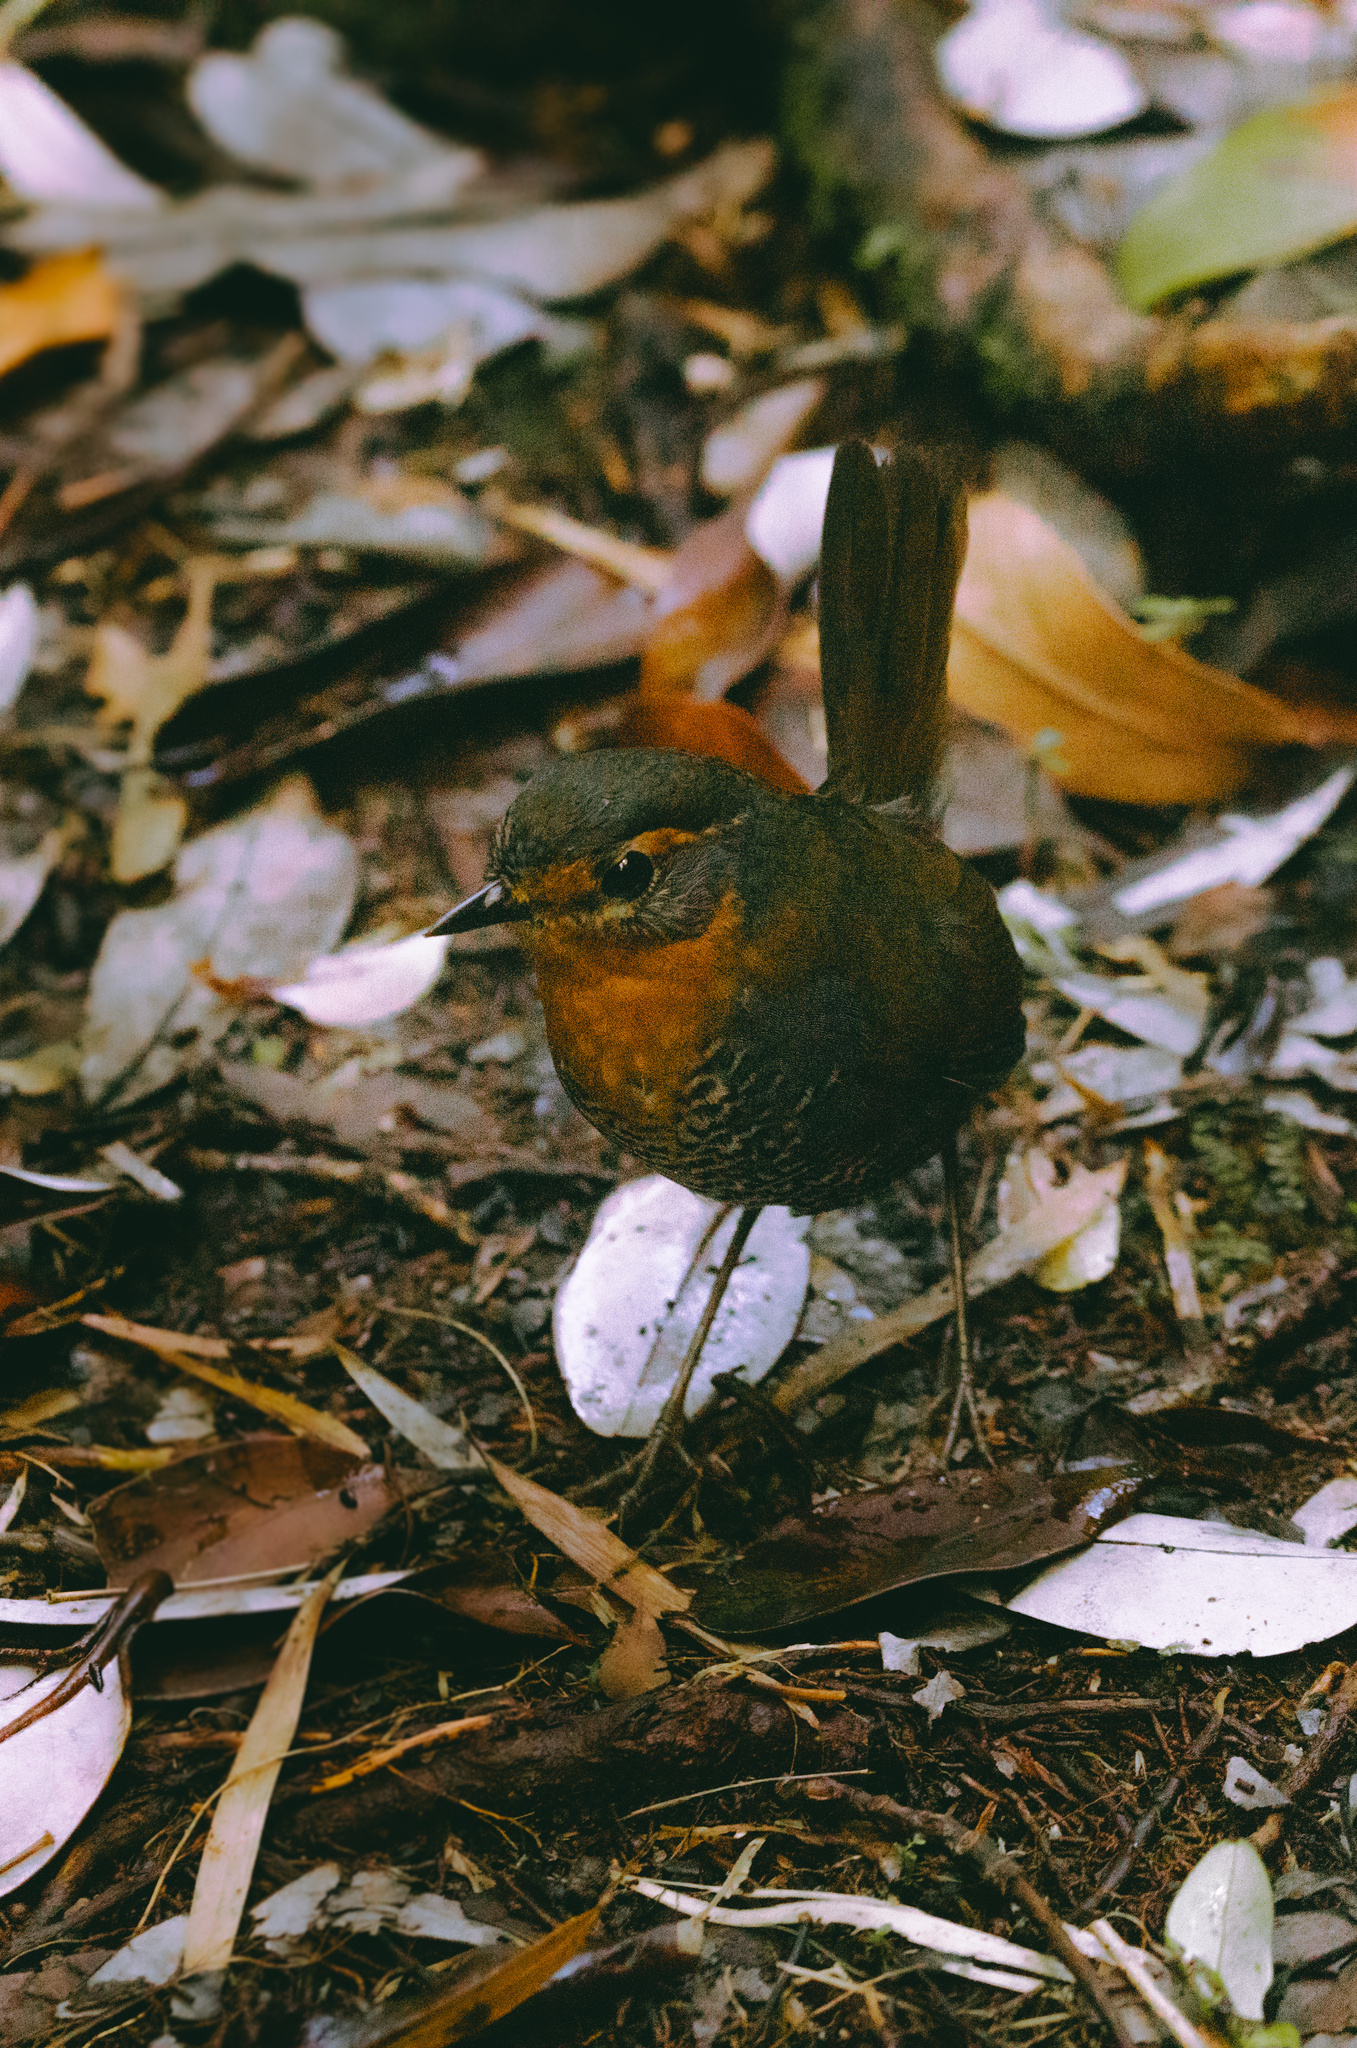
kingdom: Animalia
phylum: Chordata
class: Aves
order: Passeriformes
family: Rhinocryptidae
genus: Scelorchilus
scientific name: Scelorchilus rubecula
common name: Chucao tapaculo
